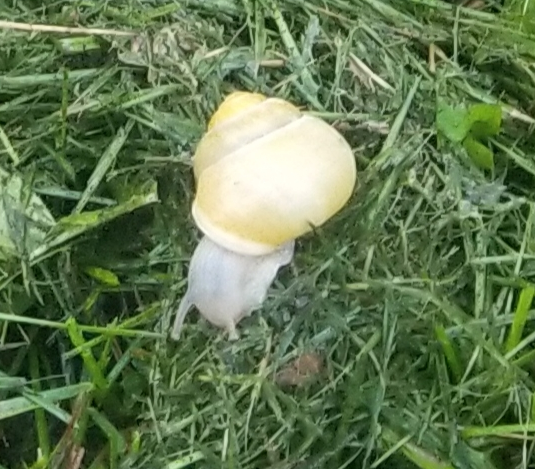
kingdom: Animalia
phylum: Mollusca
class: Gastropoda
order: Stylommatophora
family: Helicidae
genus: Cepaea
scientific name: Cepaea hortensis
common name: White-lip gardensnail
